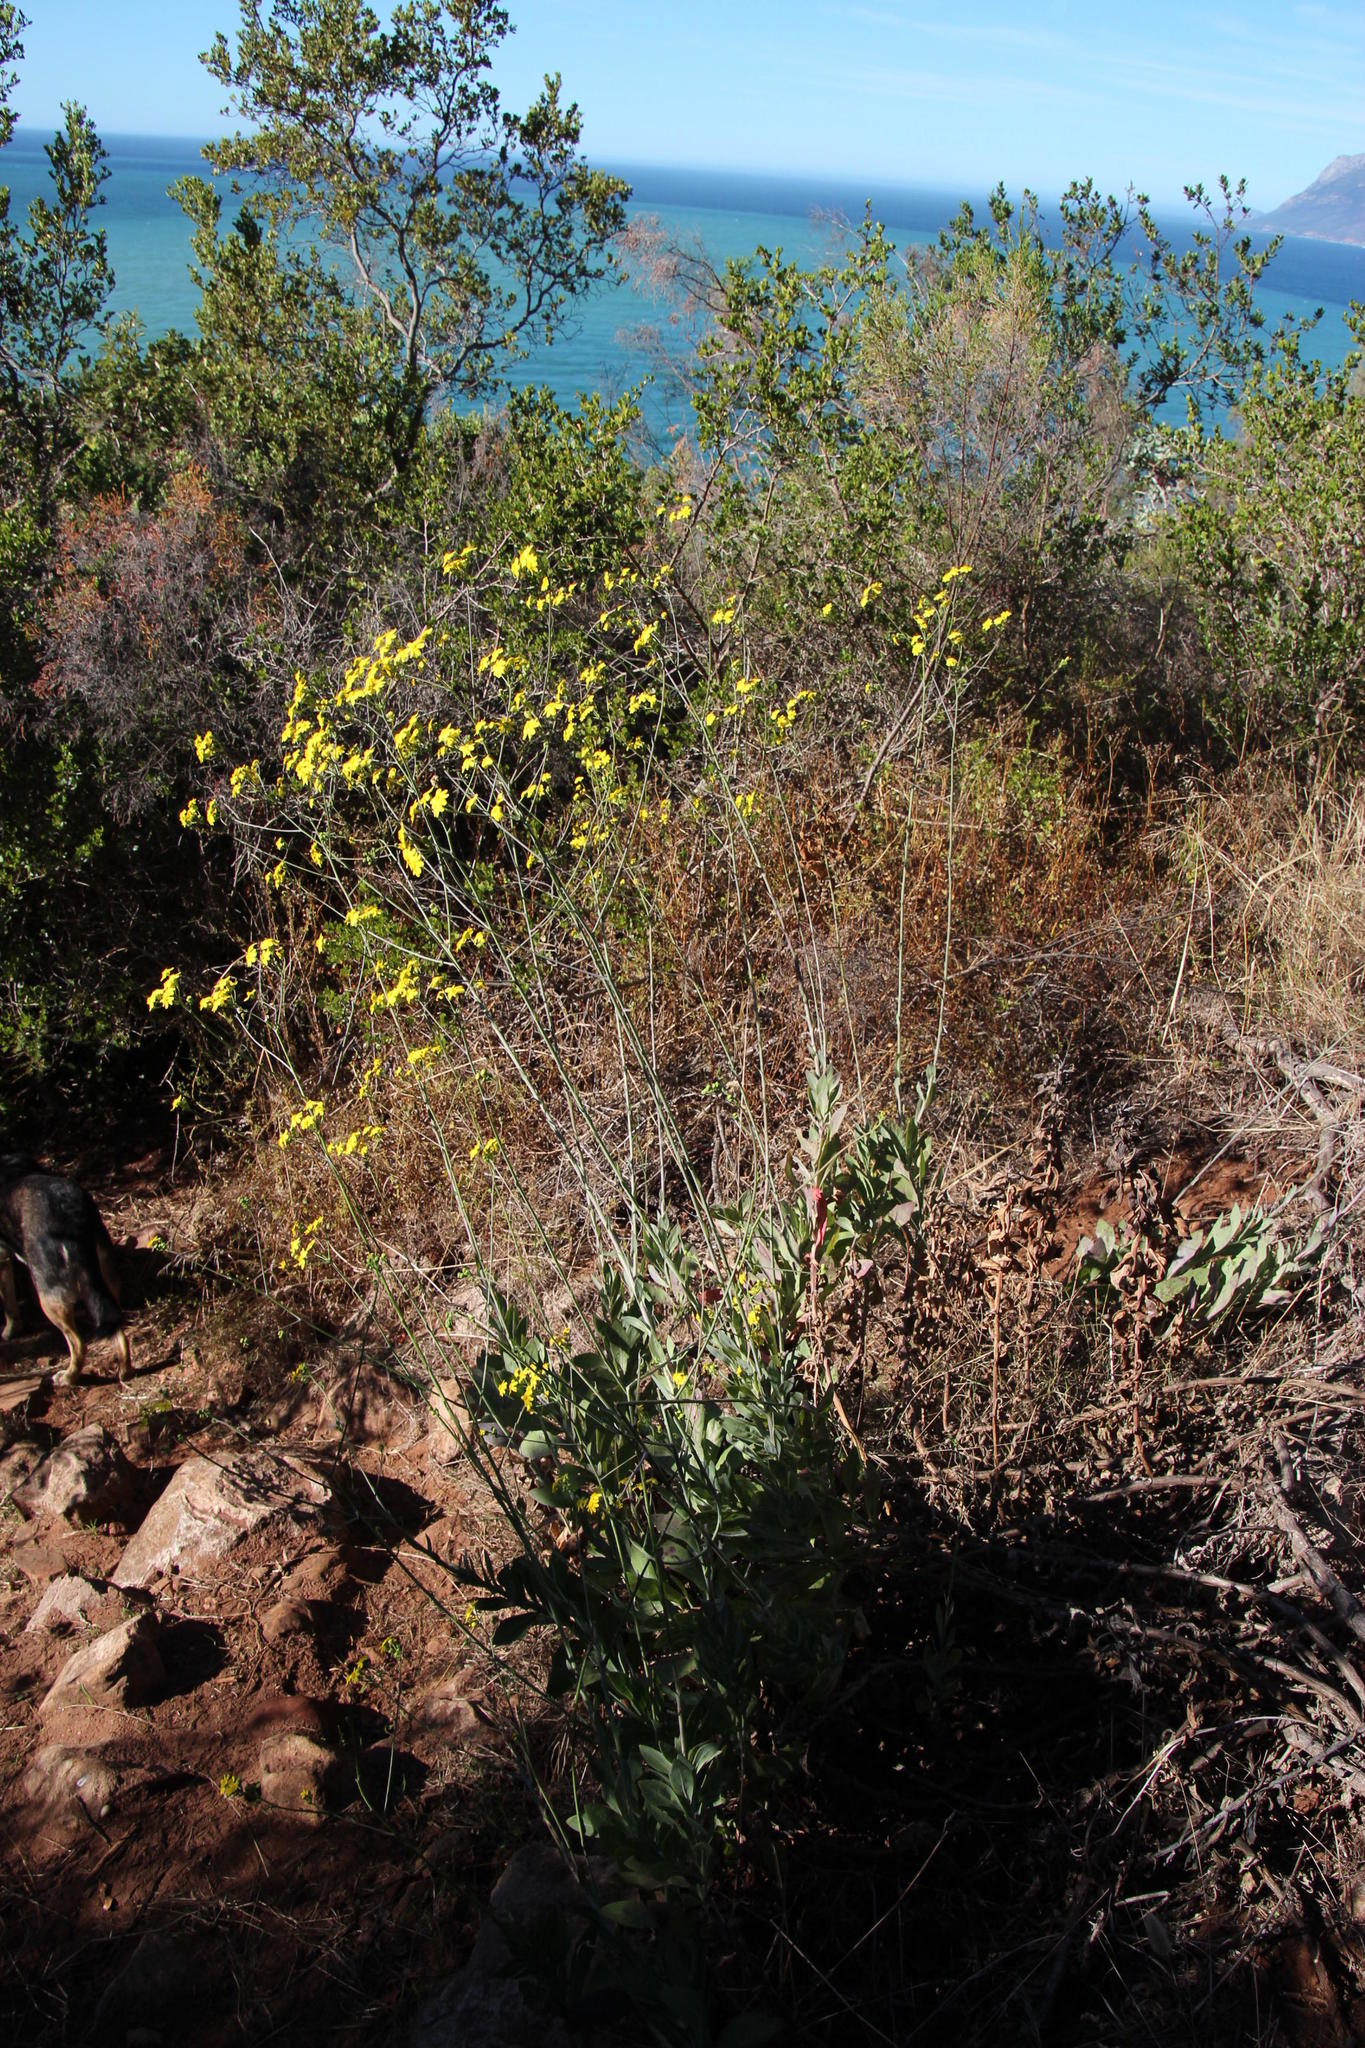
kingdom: Plantae
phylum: Tracheophyta
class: Magnoliopsida
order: Asterales
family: Asteraceae
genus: Othonna
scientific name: Othonna quinquedentata
